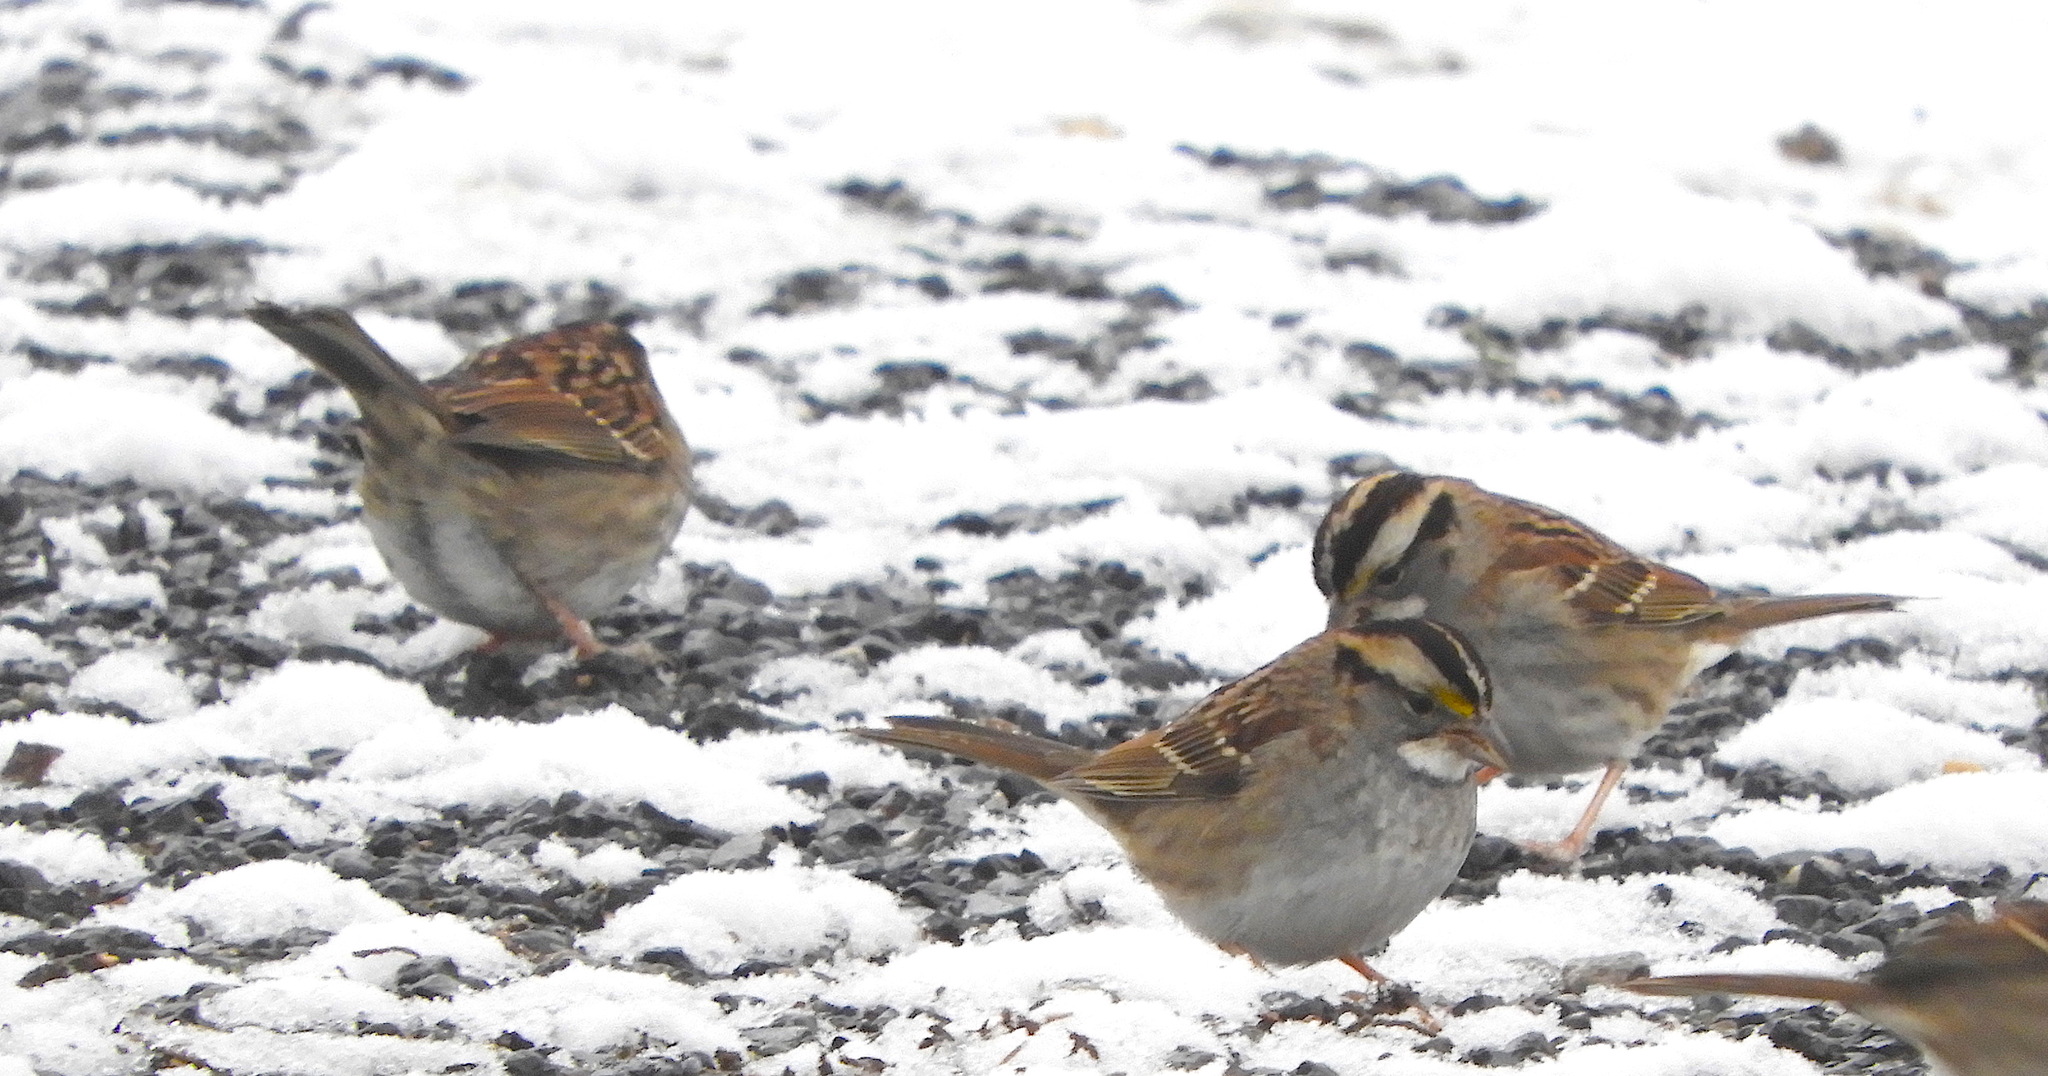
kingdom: Animalia
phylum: Chordata
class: Aves
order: Passeriformes
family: Passerellidae
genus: Zonotrichia
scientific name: Zonotrichia albicollis
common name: White-throated sparrow
